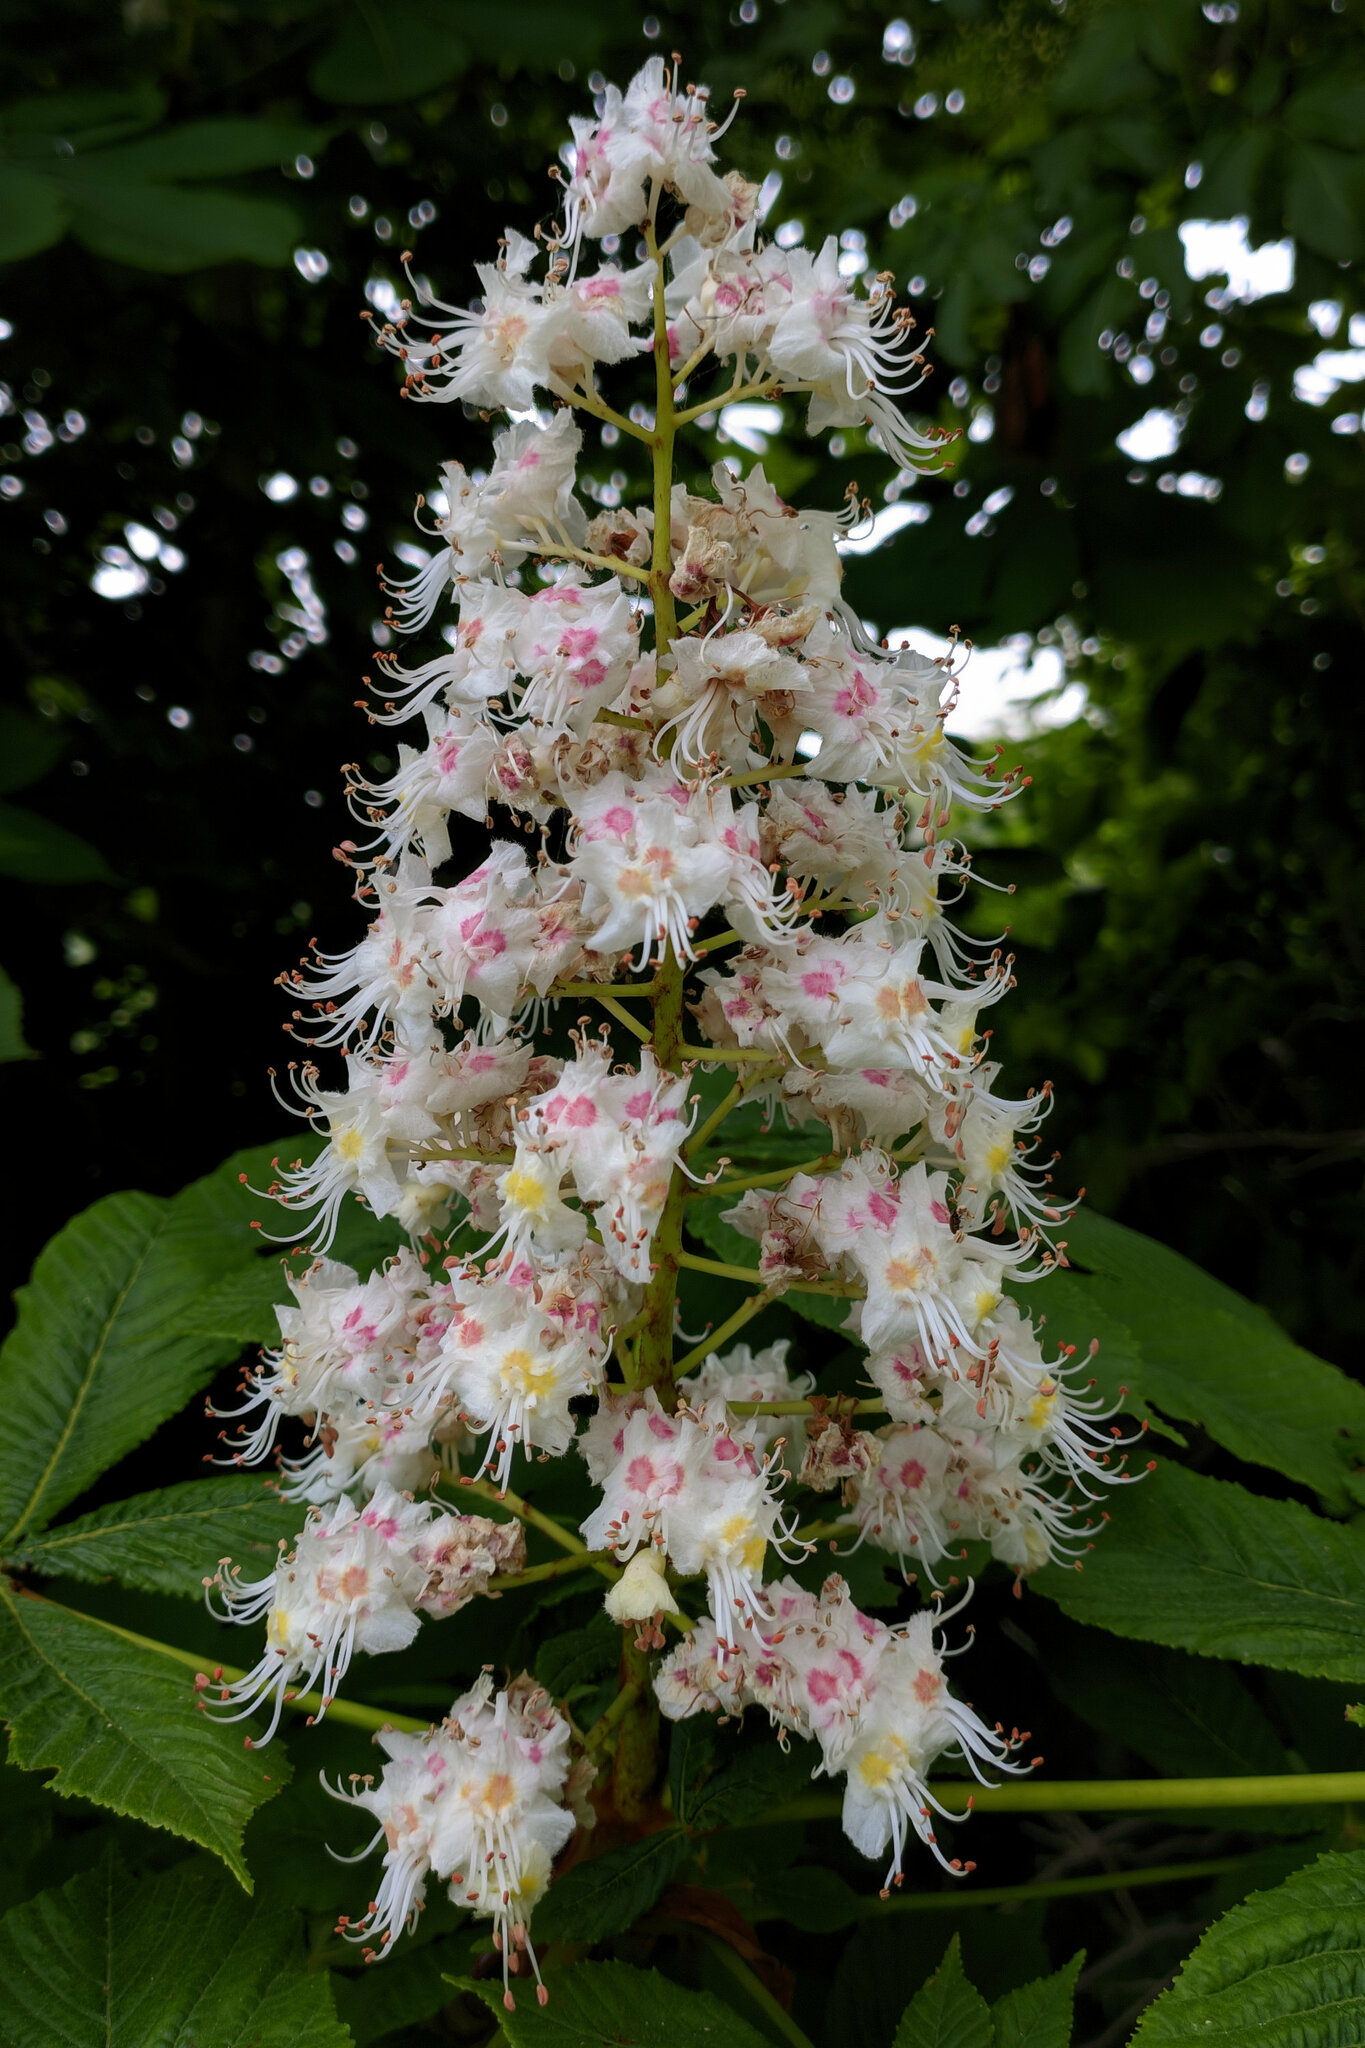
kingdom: Plantae
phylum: Tracheophyta
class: Magnoliopsida
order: Sapindales
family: Sapindaceae
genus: Aesculus
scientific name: Aesculus hippocastanum
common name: Horse-chestnut
